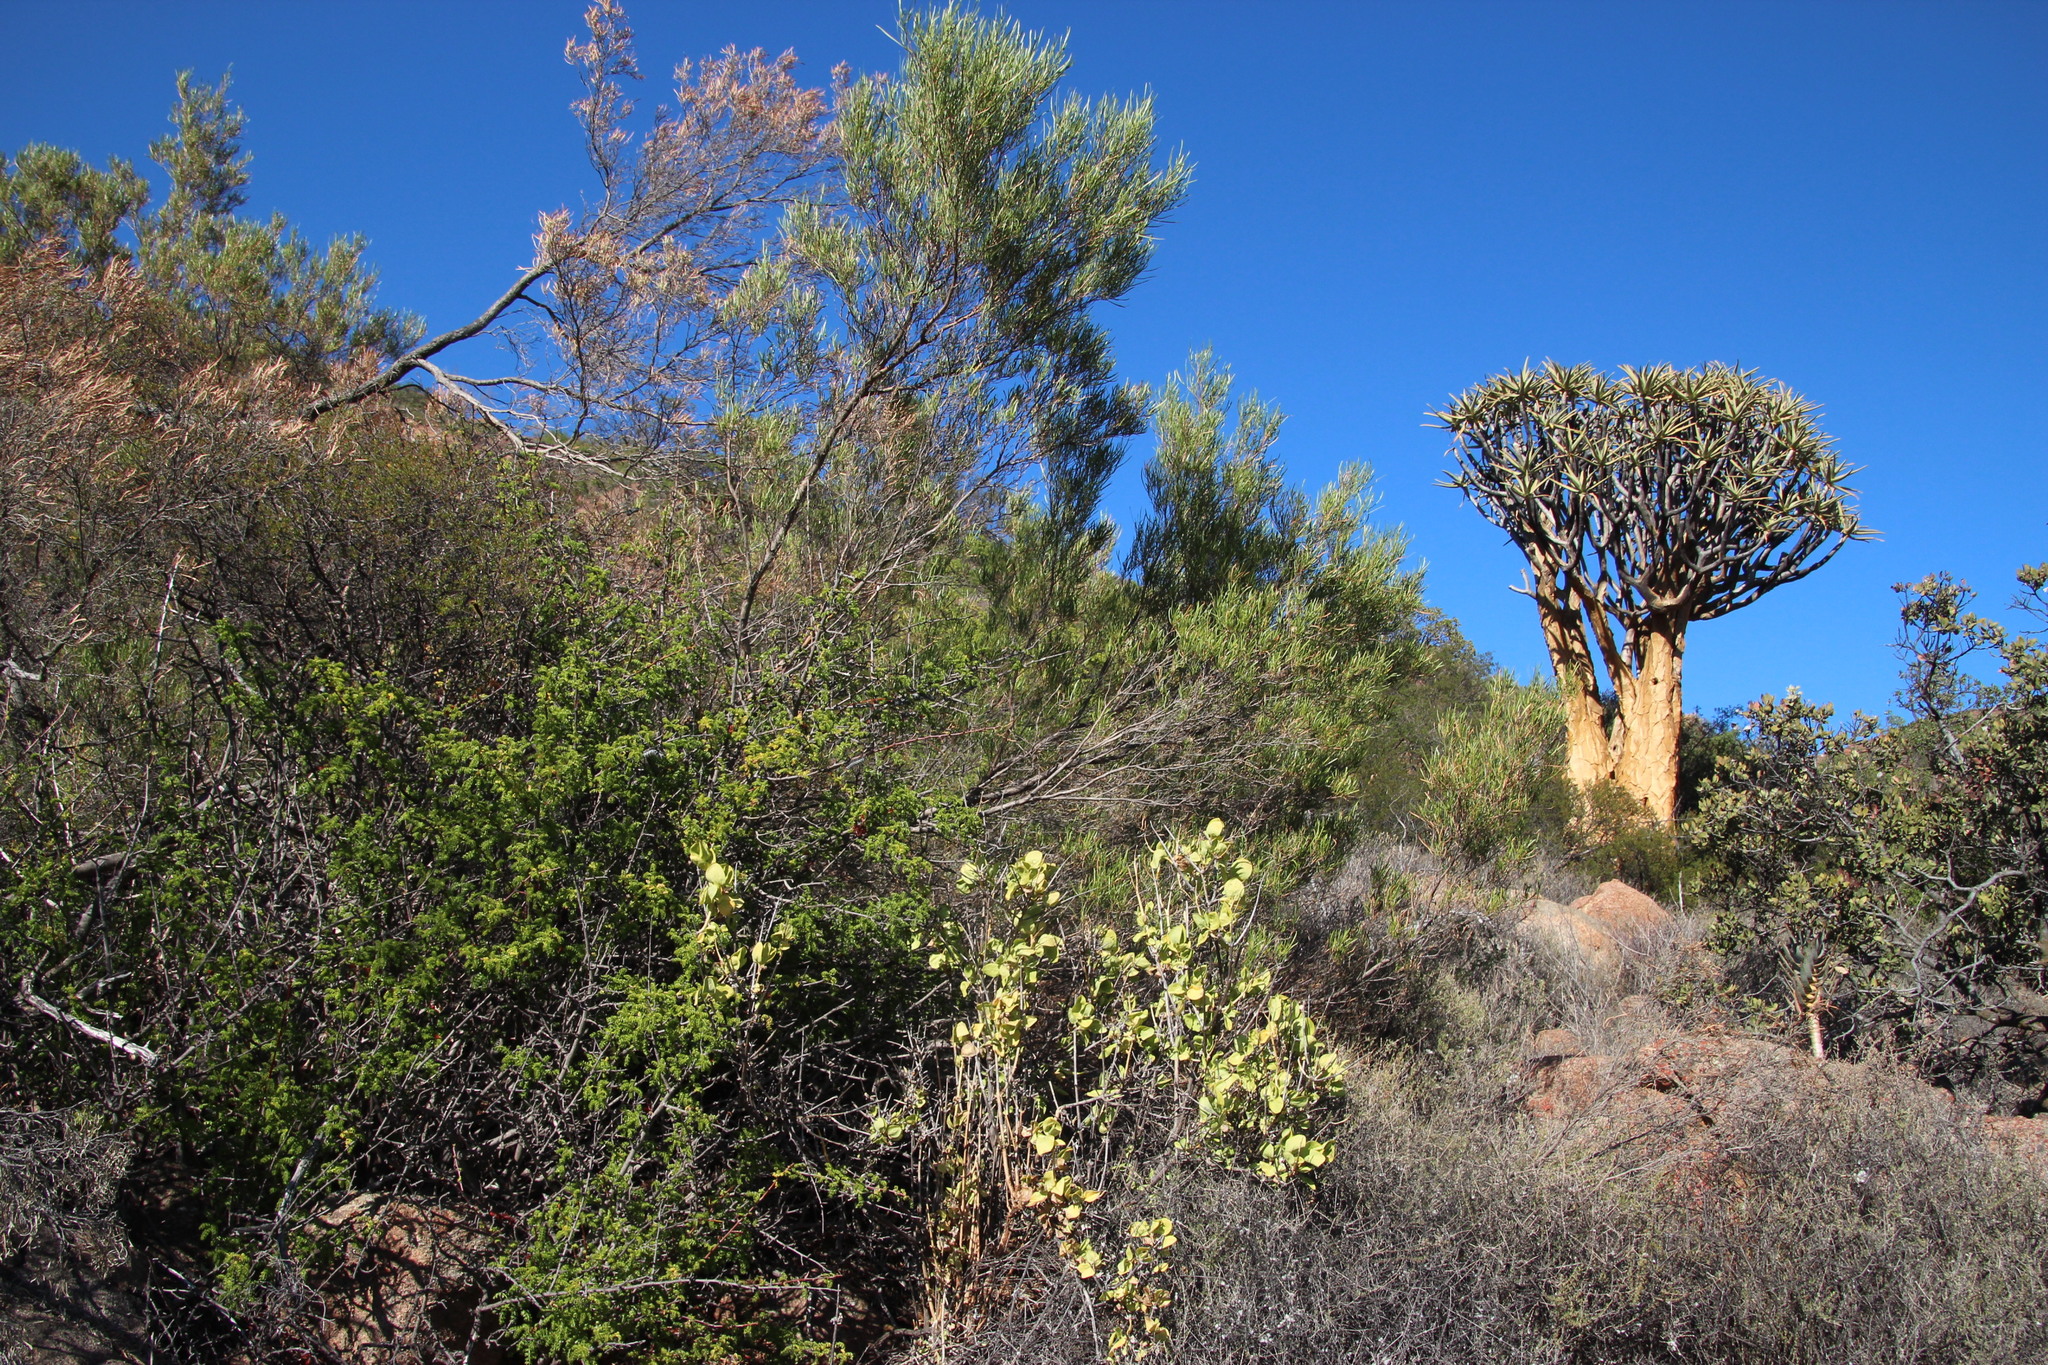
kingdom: Plantae
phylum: Tracheophyta
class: Magnoliopsida
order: Sapindales
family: Sapindaceae
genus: Dodonaea
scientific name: Dodonaea viscosa
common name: Hopbush
